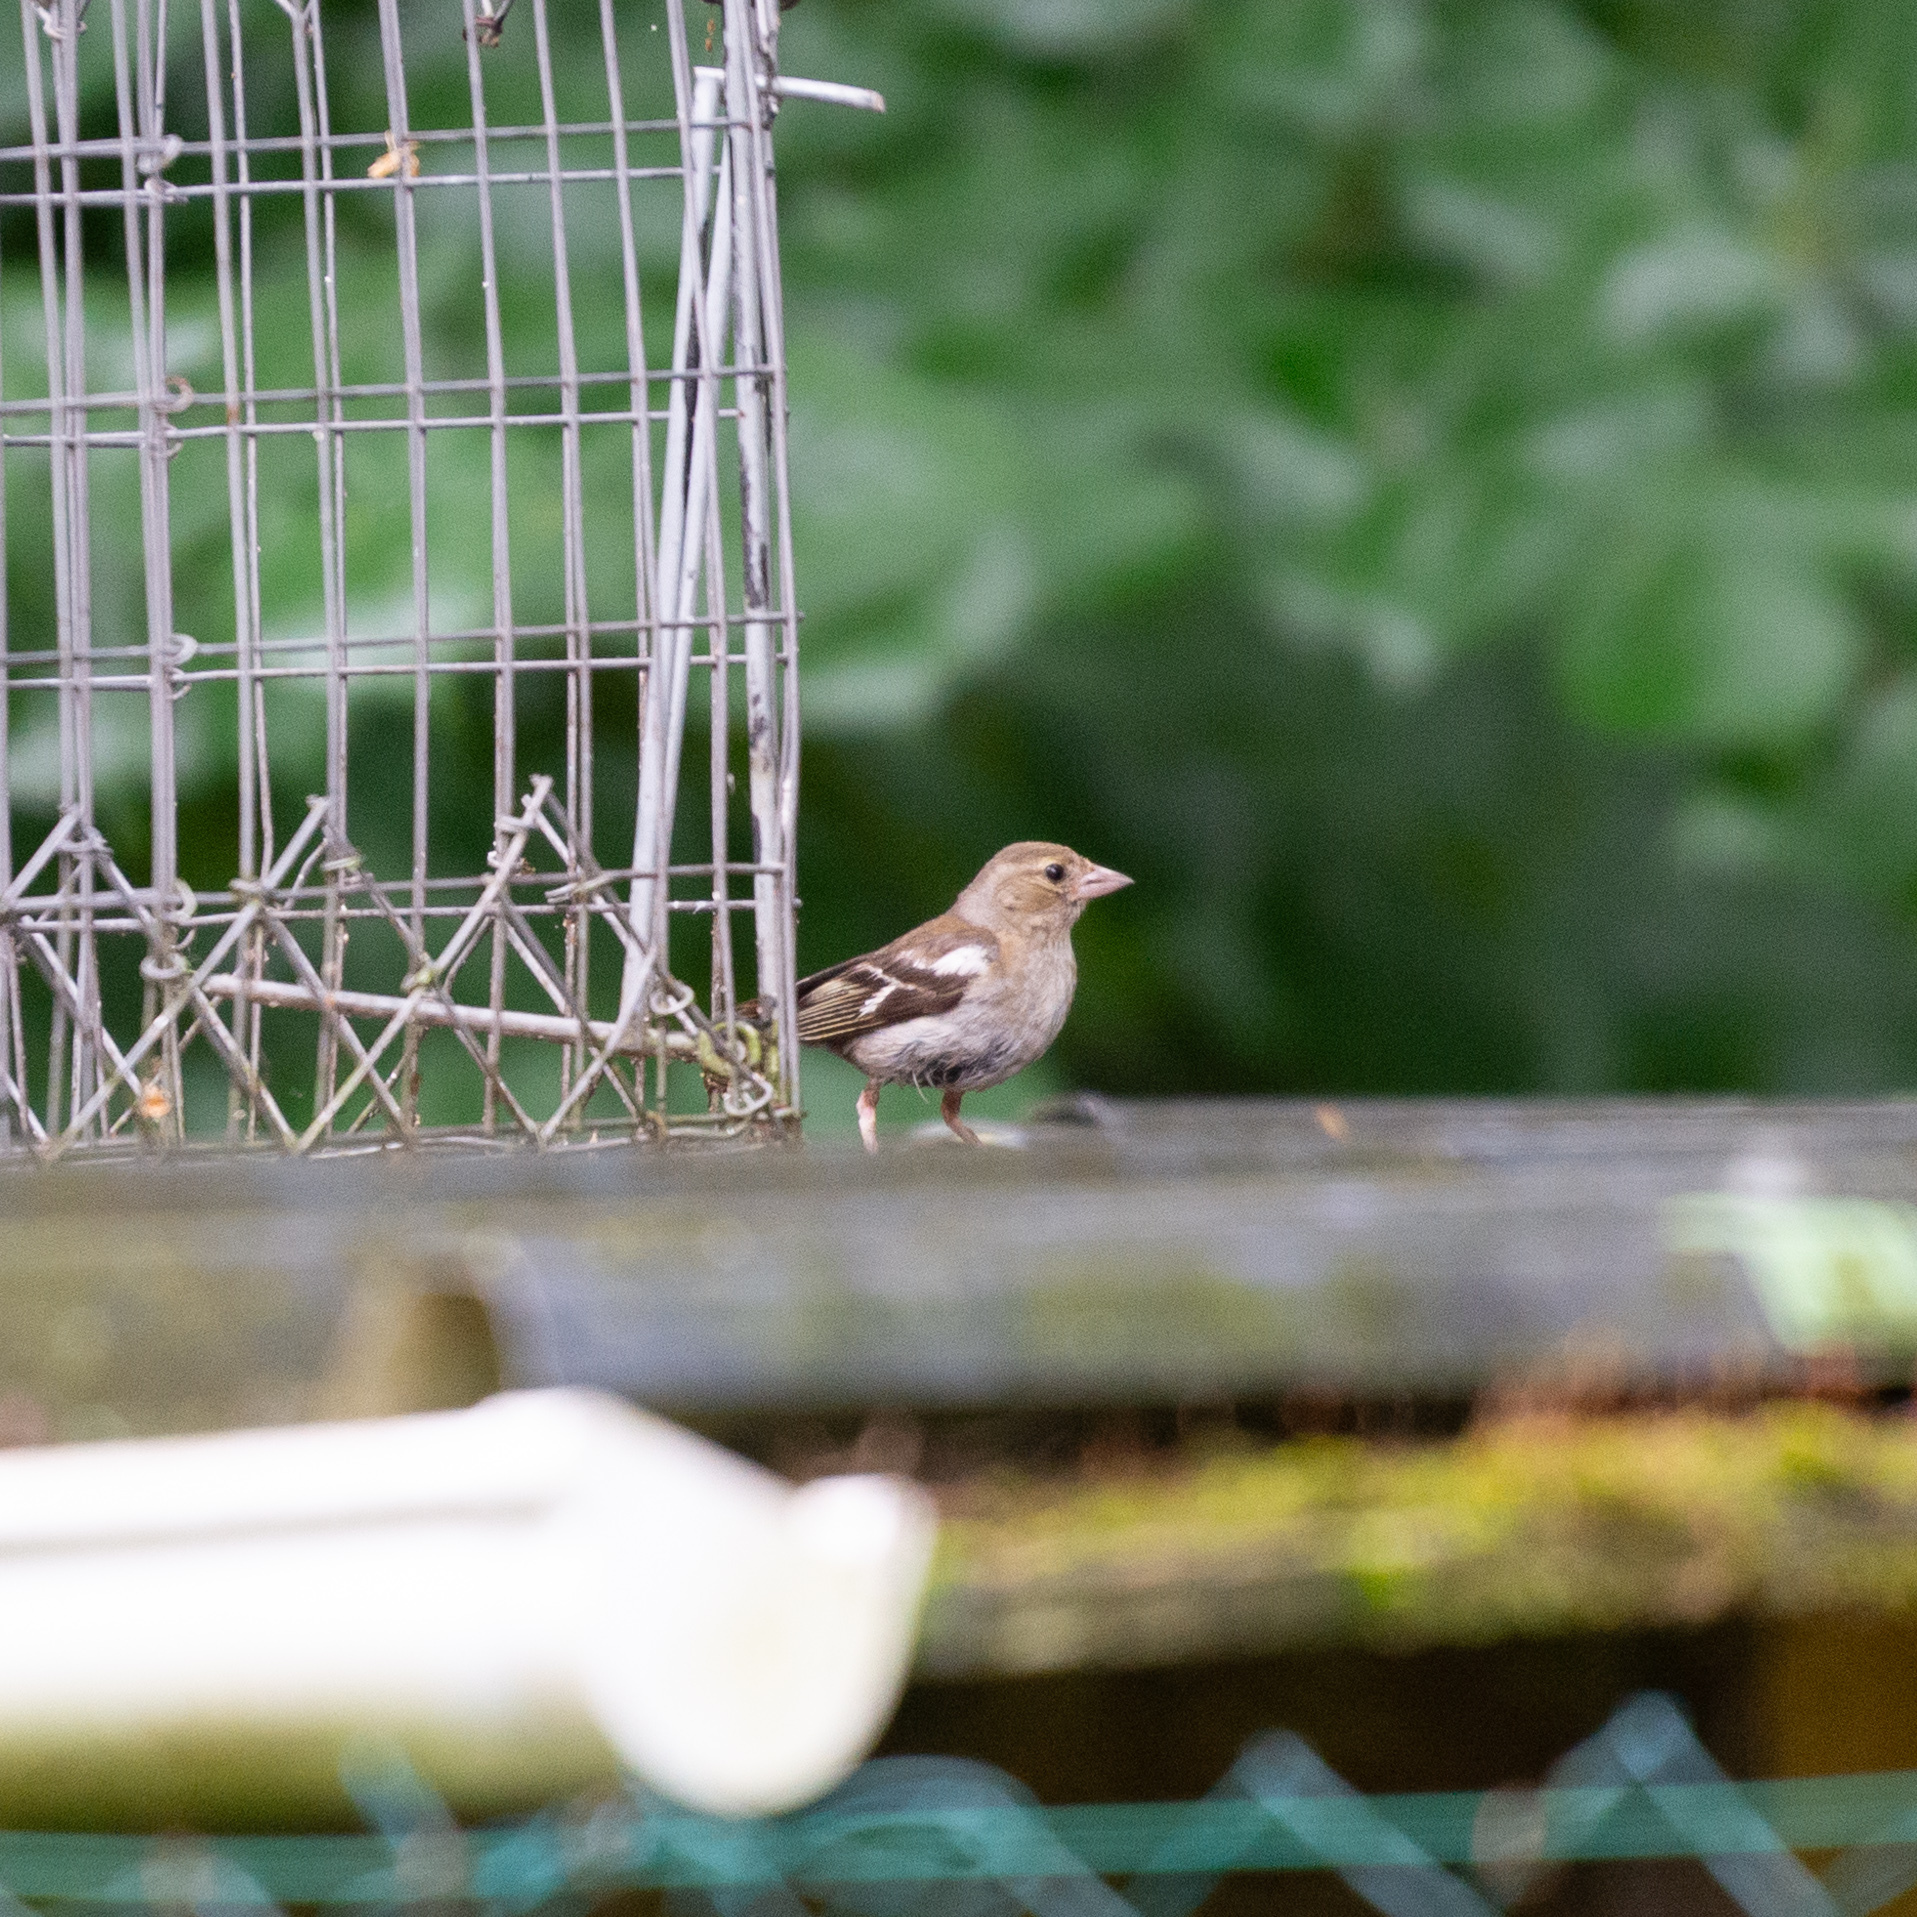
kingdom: Animalia
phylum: Chordata
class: Aves
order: Passeriformes
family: Fringillidae
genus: Fringilla
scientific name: Fringilla coelebs
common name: Common chaffinch
